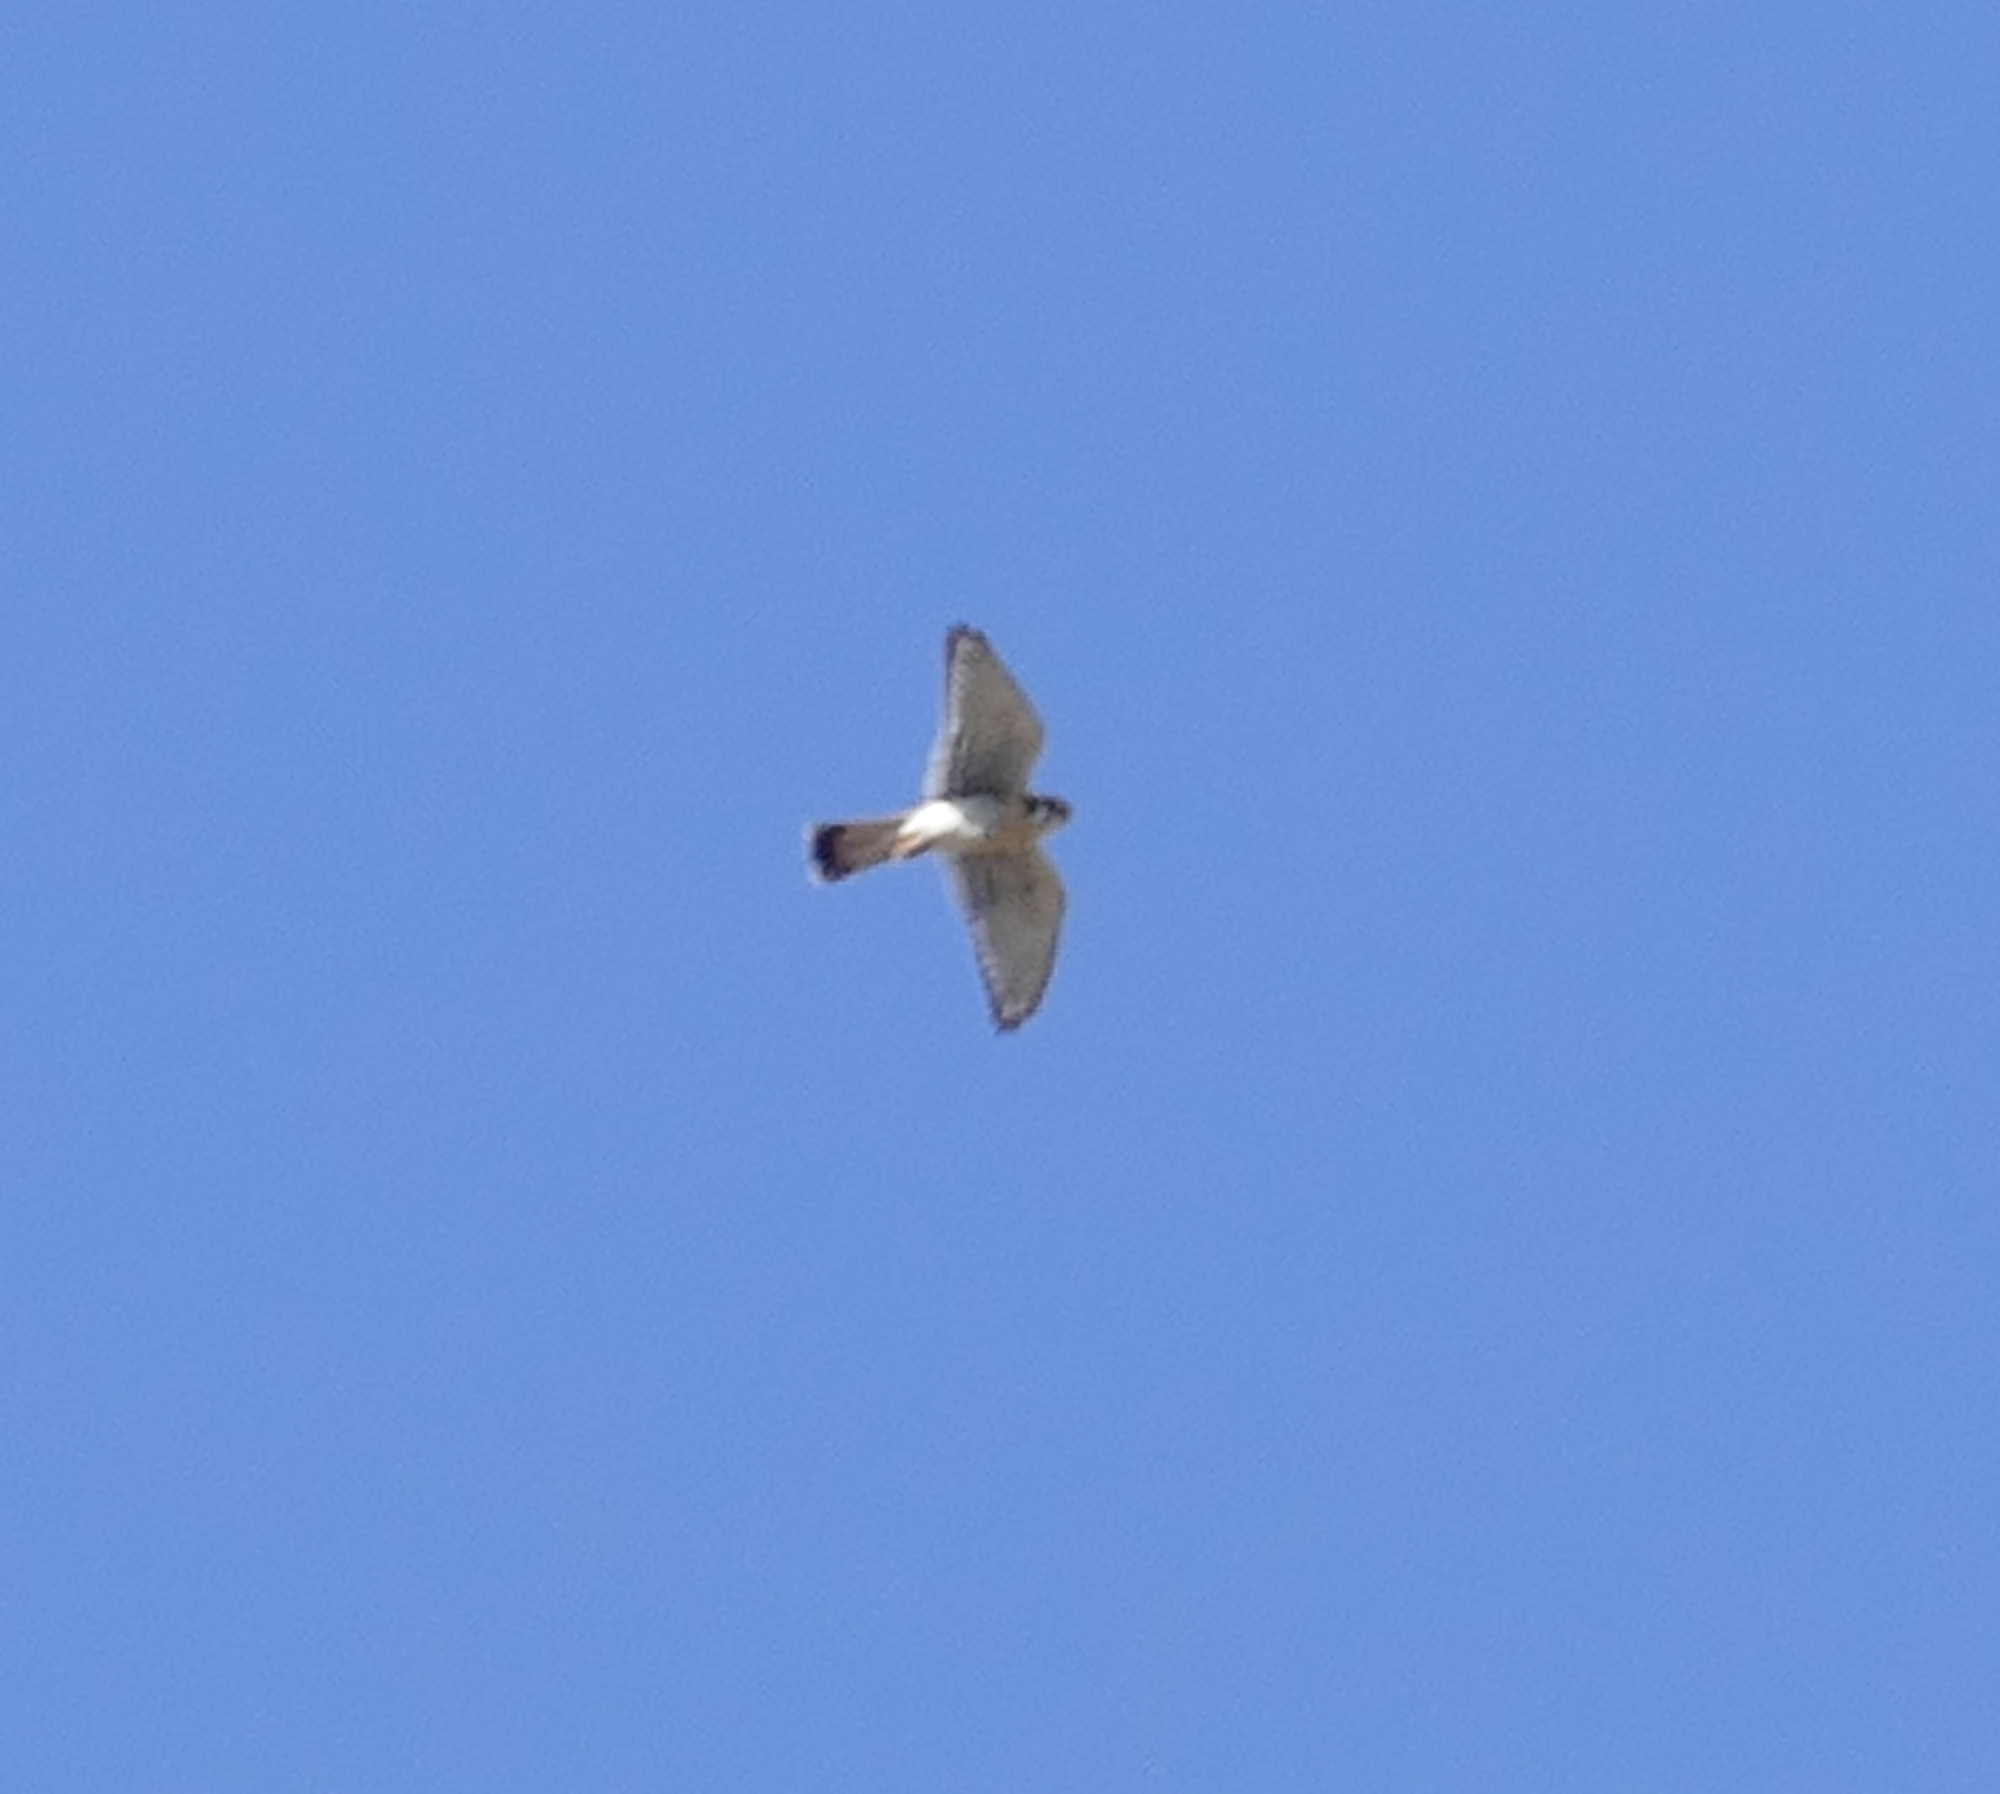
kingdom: Animalia
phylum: Chordata
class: Aves
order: Falconiformes
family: Falconidae
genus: Falco
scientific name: Falco sparverius
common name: American kestrel
